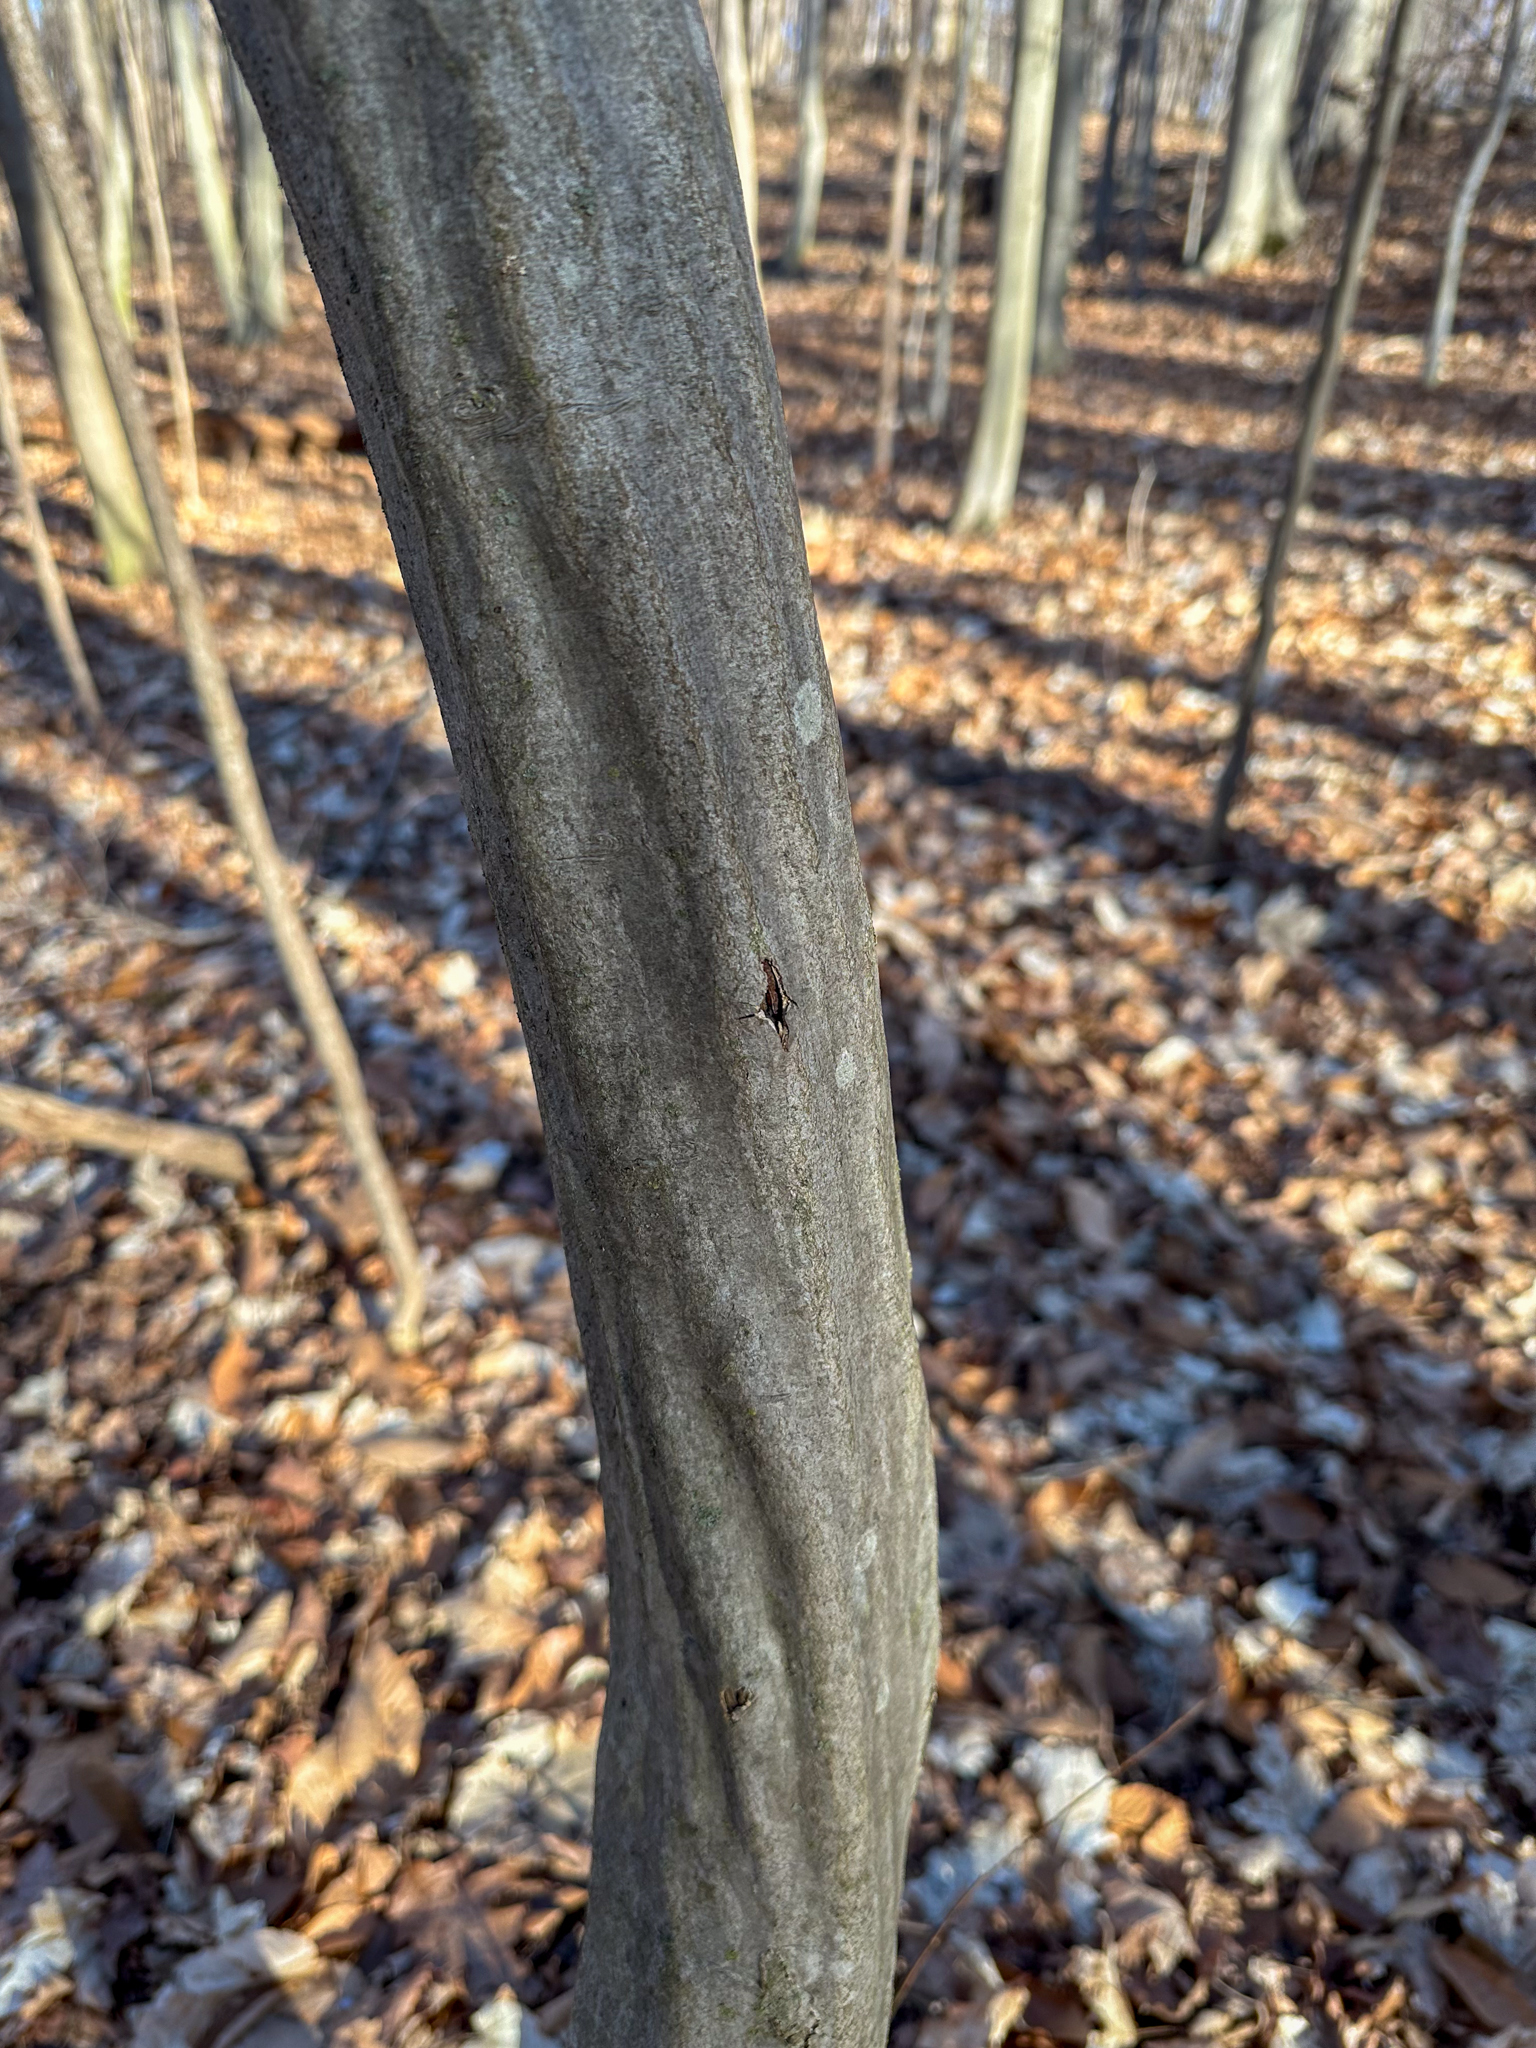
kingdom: Plantae
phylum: Tracheophyta
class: Magnoliopsida
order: Fagales
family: Betulaceae
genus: Carpinus
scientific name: Carpinus caroliniana
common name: American hornbeam
